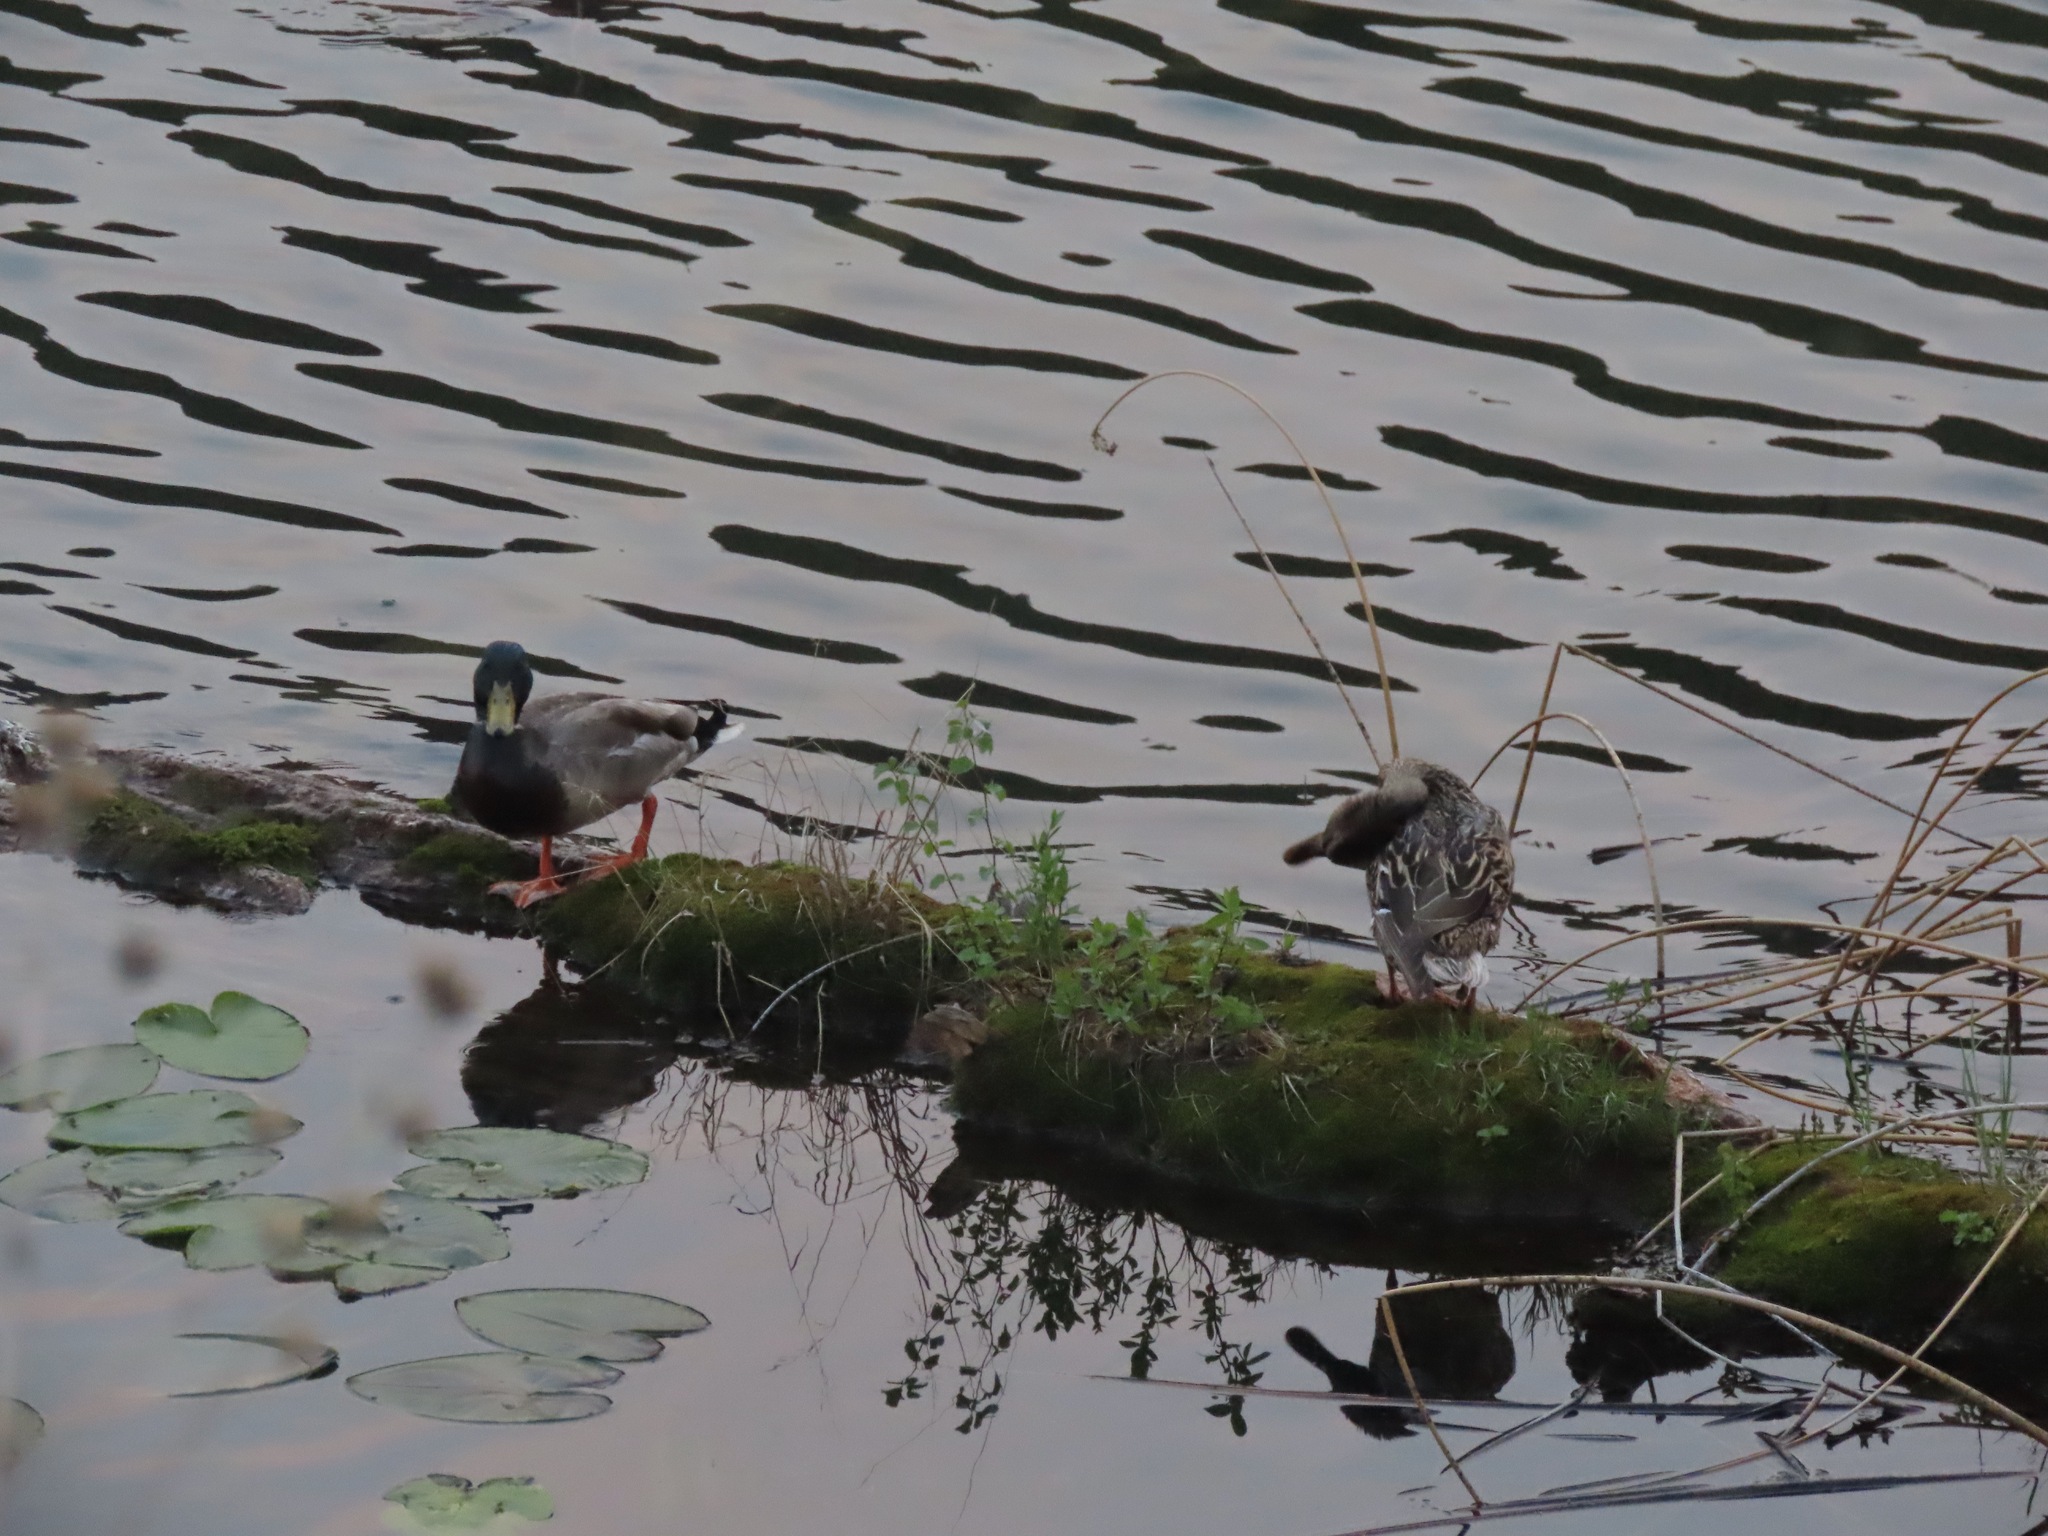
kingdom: Animalia
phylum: Chordata
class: Aves
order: Anseriformes
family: Anatidae
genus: Anas
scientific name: Anas platyrhynchos
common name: Mallard
